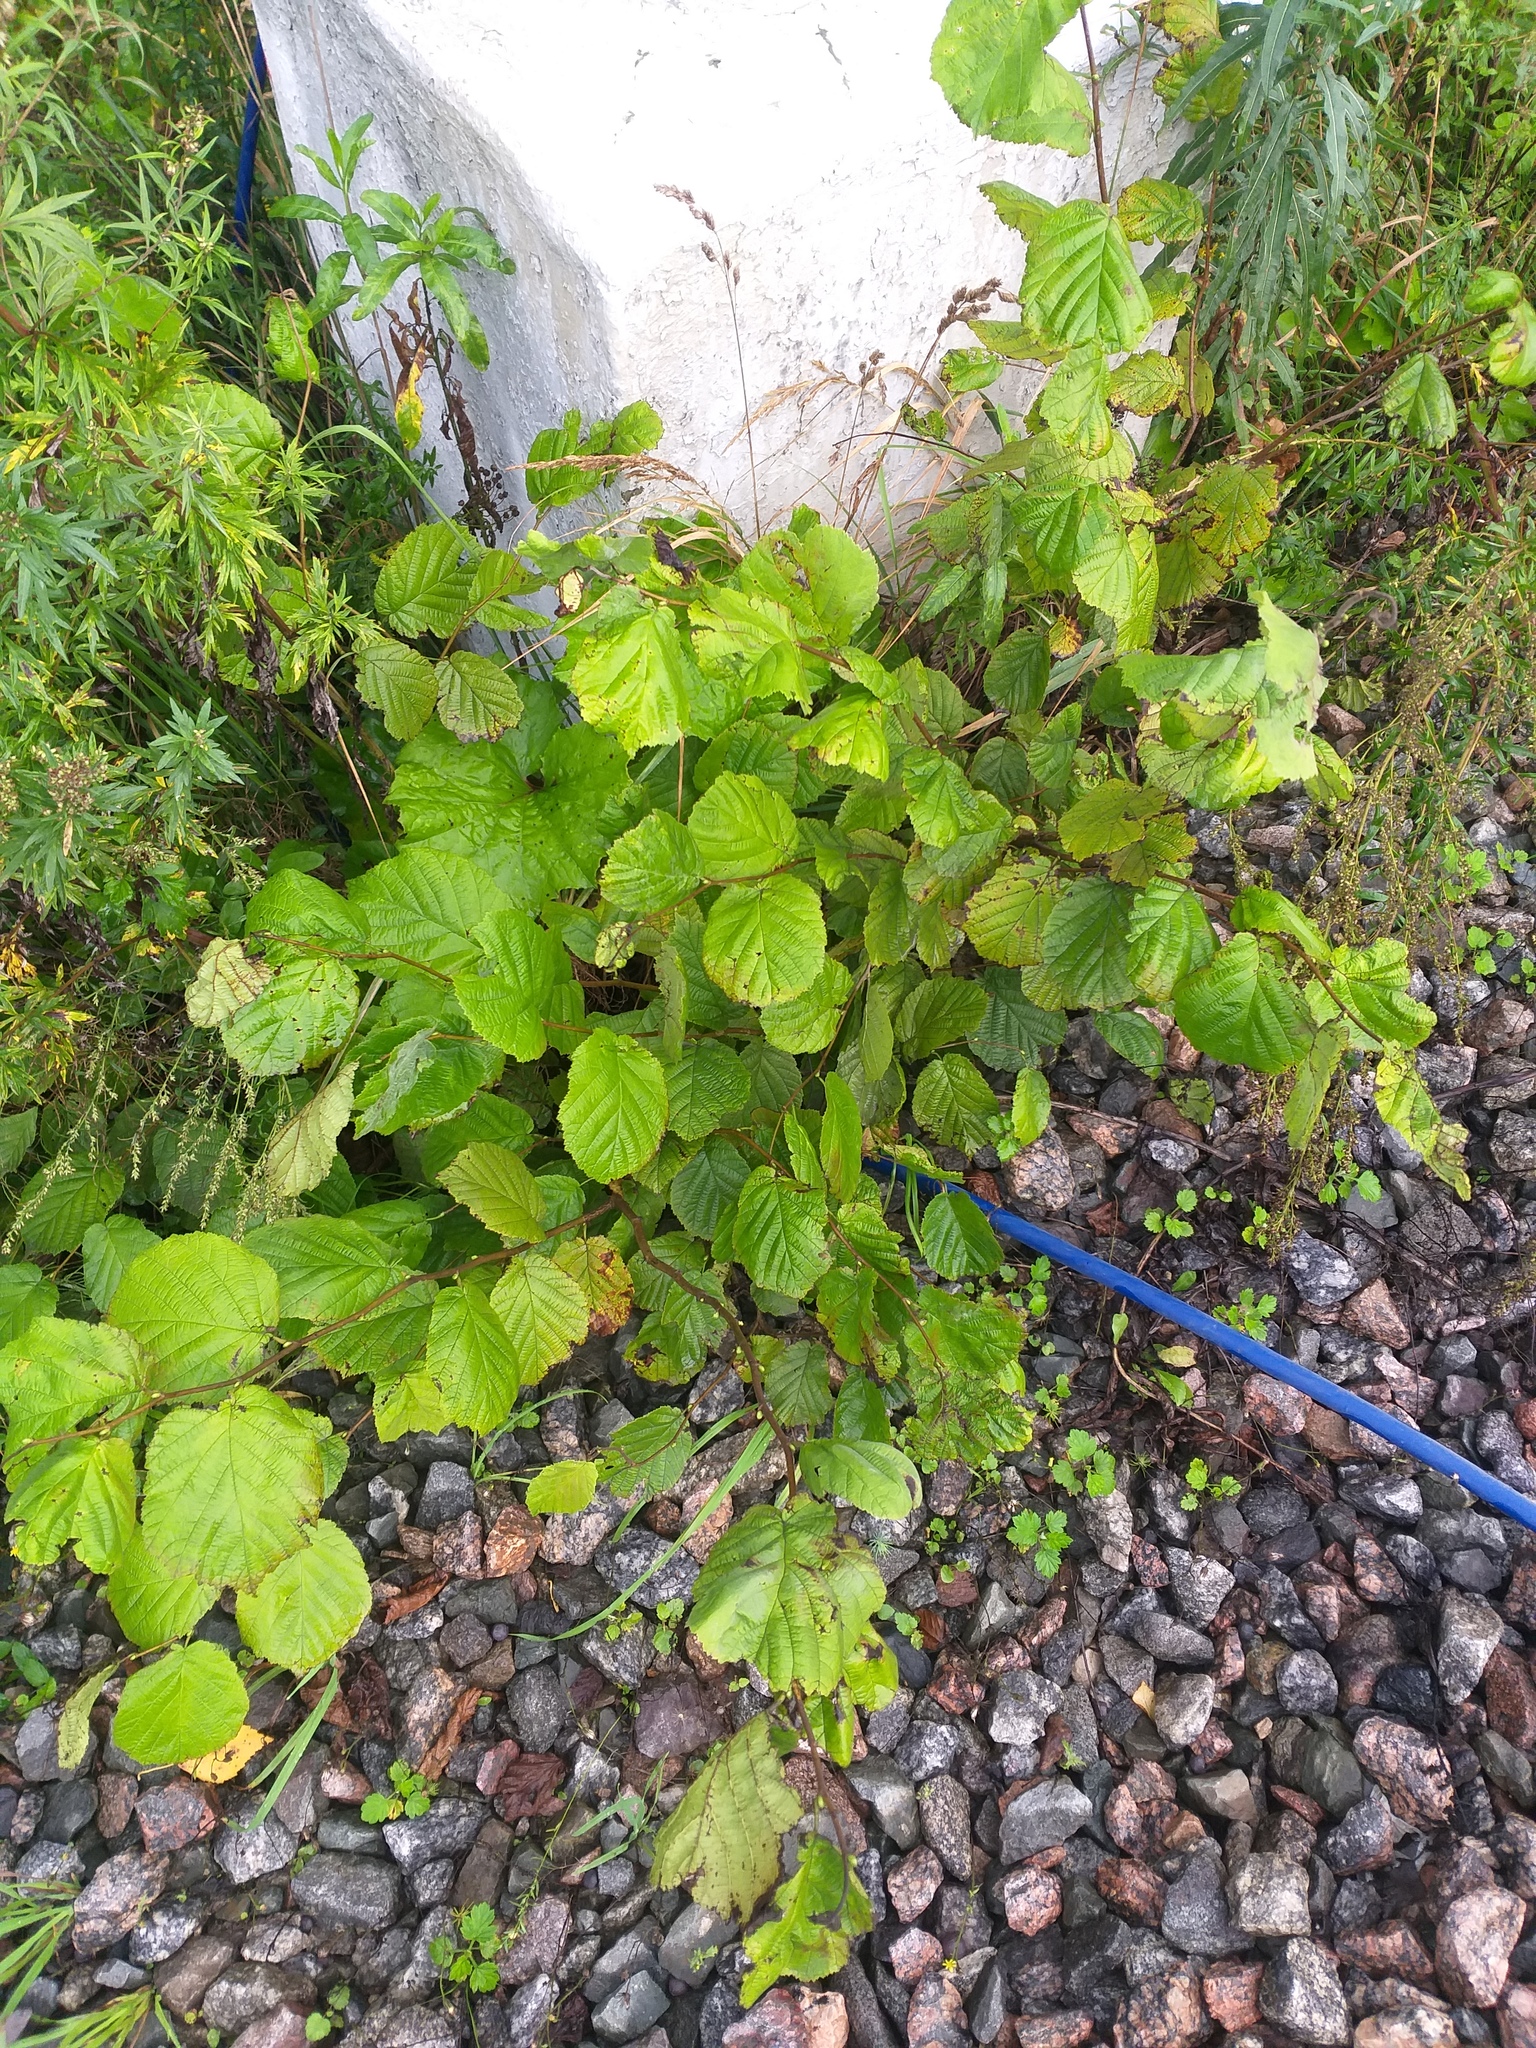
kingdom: Plantae
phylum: Tracheophyta
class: Magnoliopsida
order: Fagales
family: Betulaceae
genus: Corylus
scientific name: Corylus avellana
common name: European hazel
